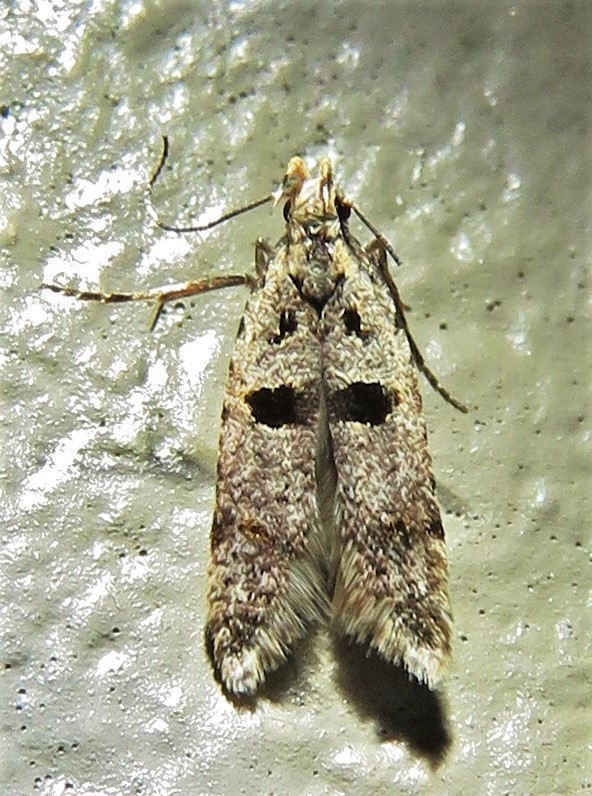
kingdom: Animalia
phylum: Arthropoda
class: Insecta
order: Lepidoptera
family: Gelechiidae
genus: Deltophora
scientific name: Deltophora glandiferella
